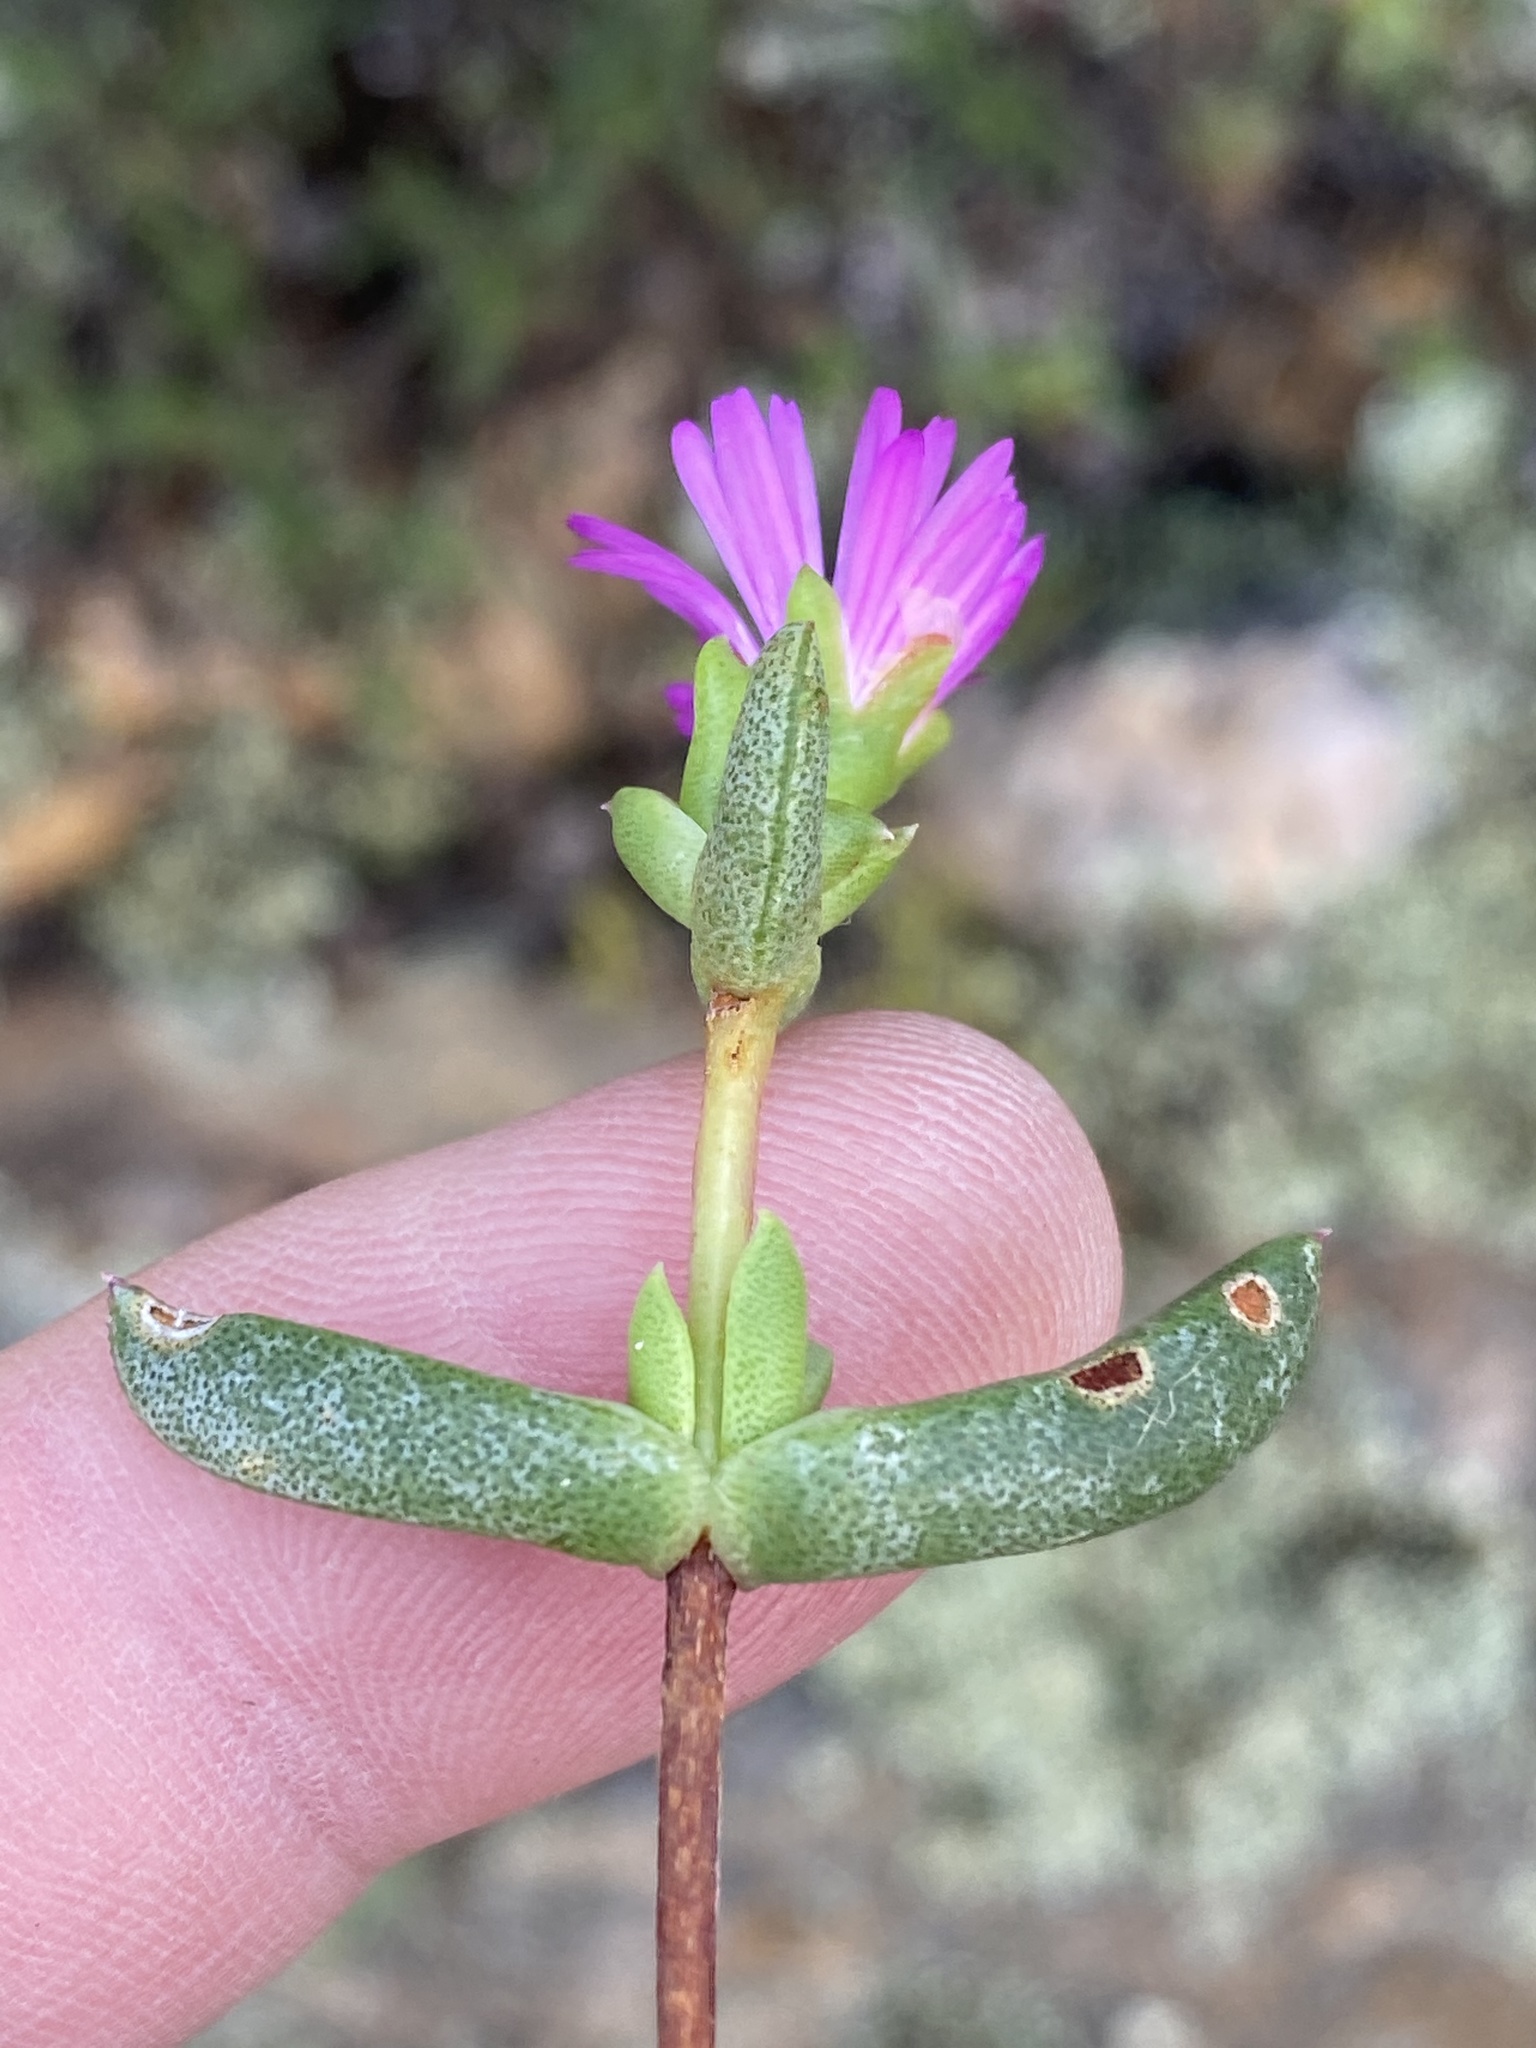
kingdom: Plantae
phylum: Tracheophyta
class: Magnoliopsida
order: Caryophyllales
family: Aizoaceae
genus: Ruschia
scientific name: Ruschia fourcadei
